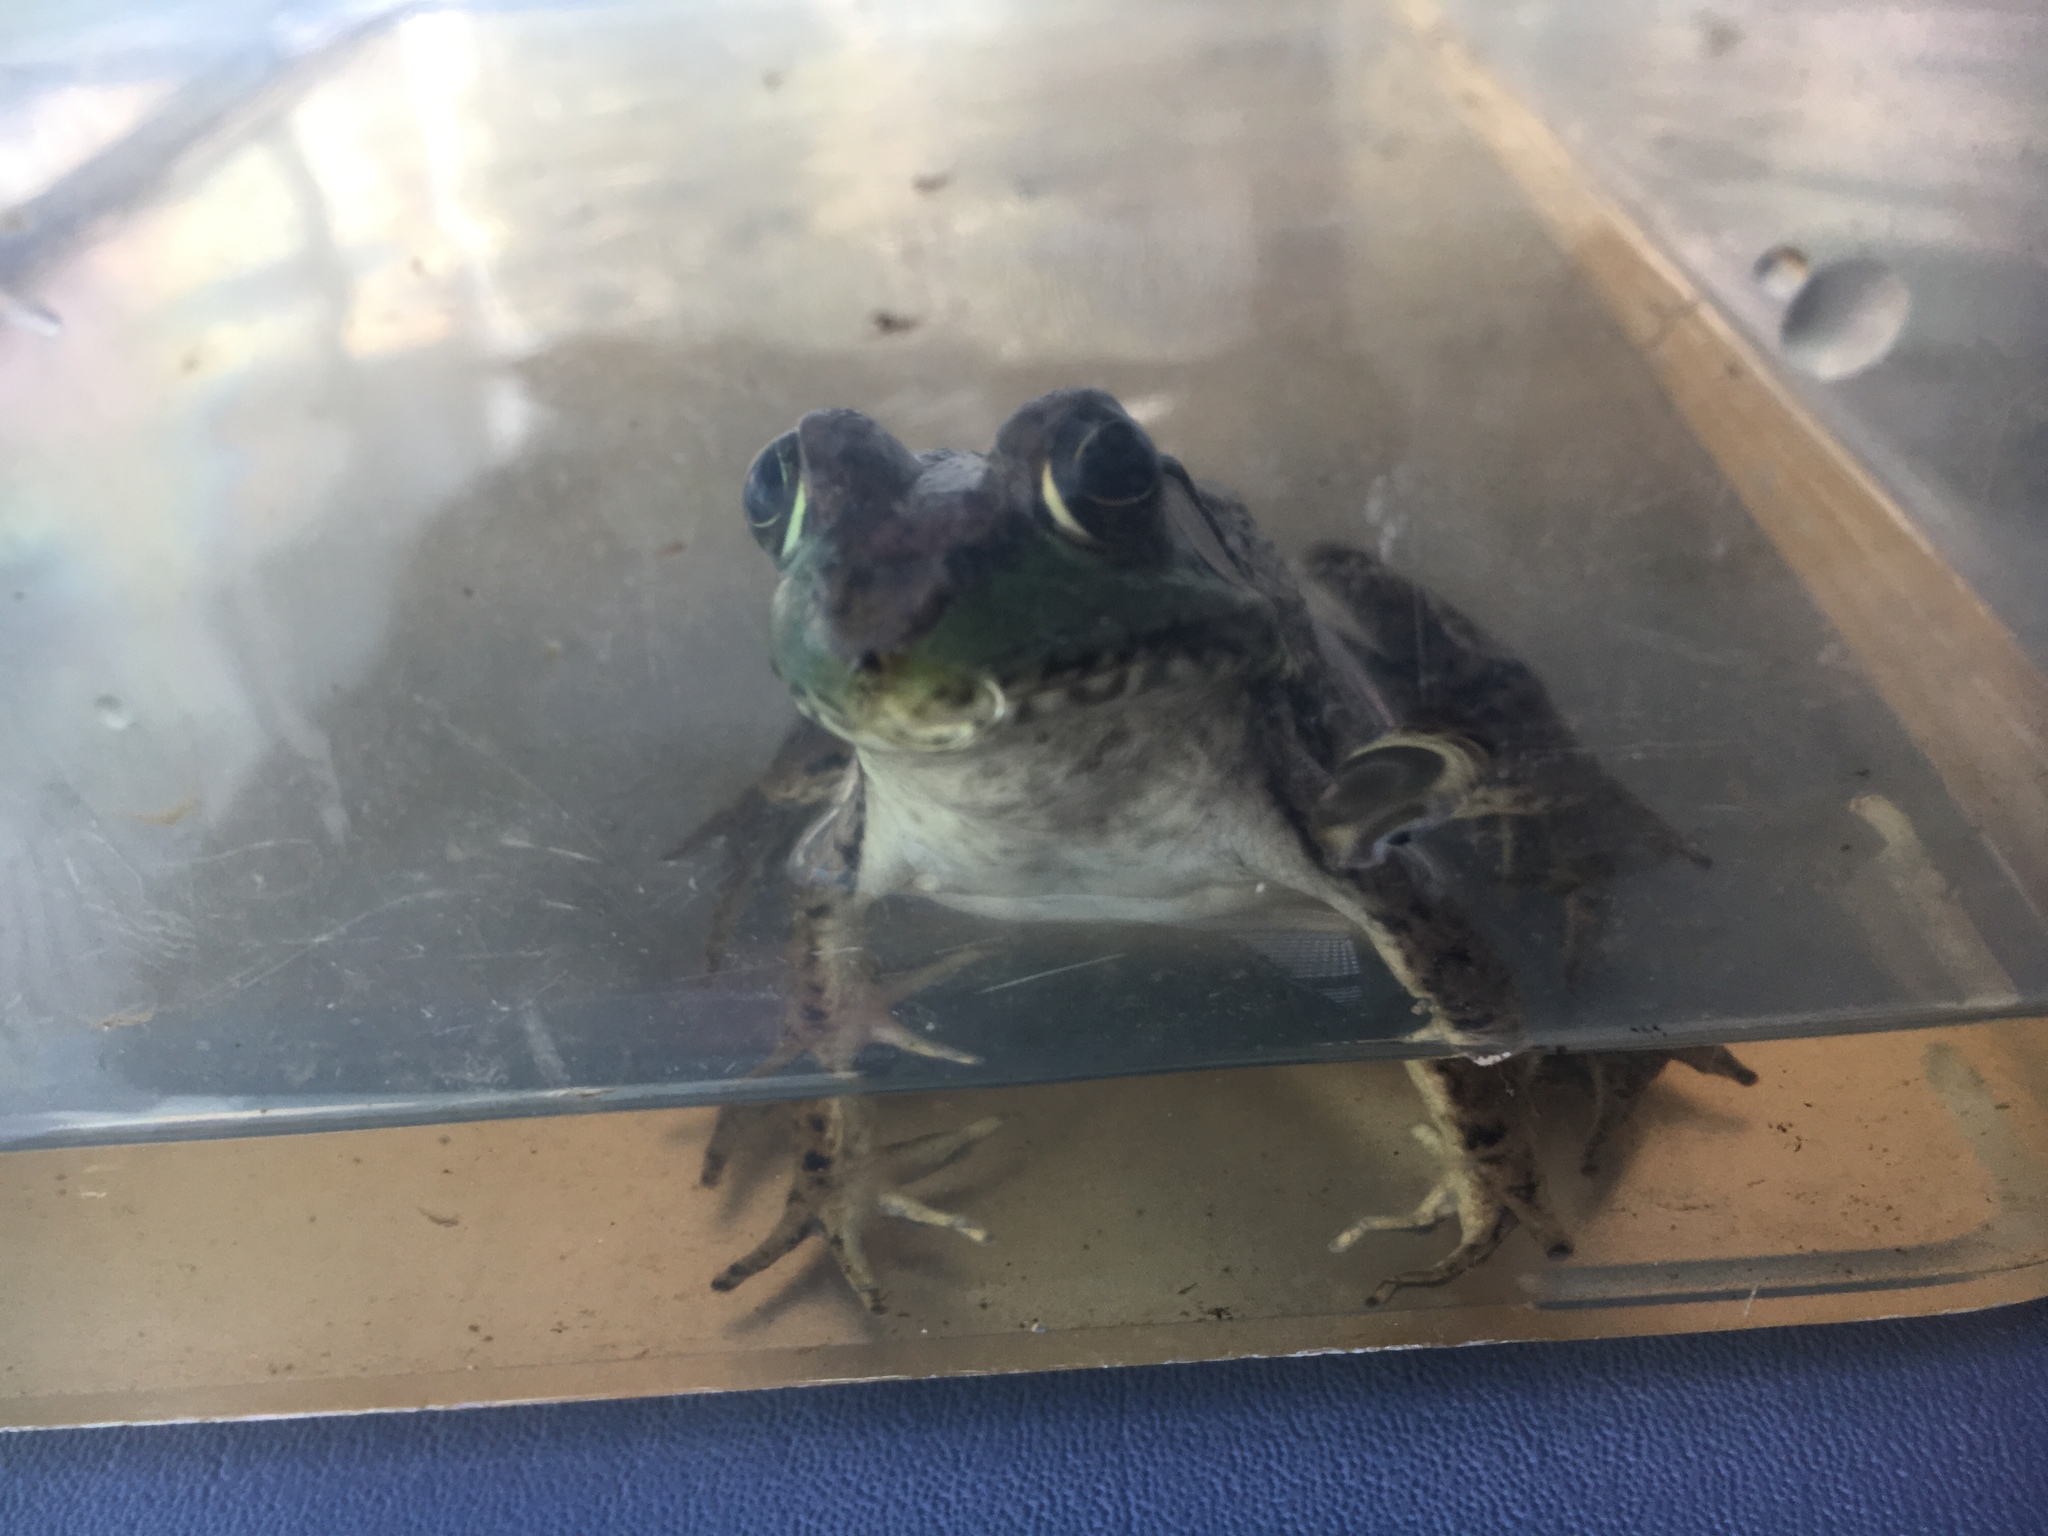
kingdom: Animalia
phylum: Chordata
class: Amphibia
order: Anura
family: Ranidae
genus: Lithobates
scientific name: Lithobates clamitans
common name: Green frog
